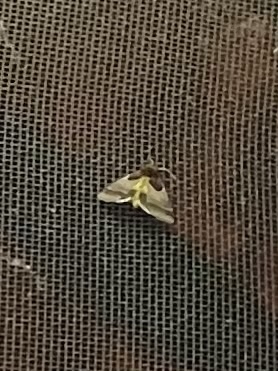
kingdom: Animalia
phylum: Arthropoda
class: Insecta
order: Lepidoptera
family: Noctuidae
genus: Schinia
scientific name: Schinia arcigera
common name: Arcigera flower moth
